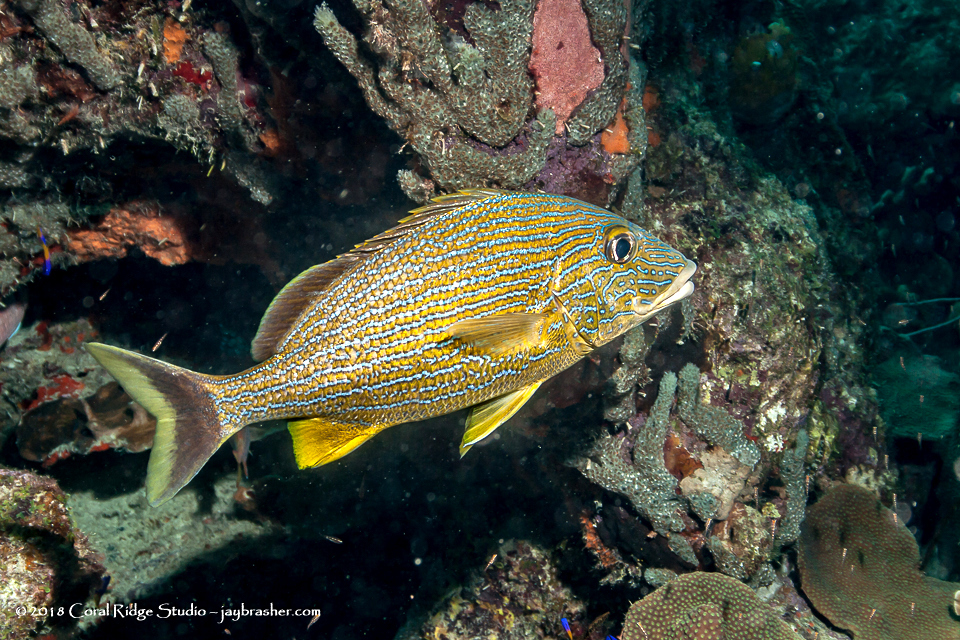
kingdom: Animalia
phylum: Chordata
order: Perciformes
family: Haemulidae
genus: Haemulon
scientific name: Haemulon sciurus
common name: Bluestriped grunt
